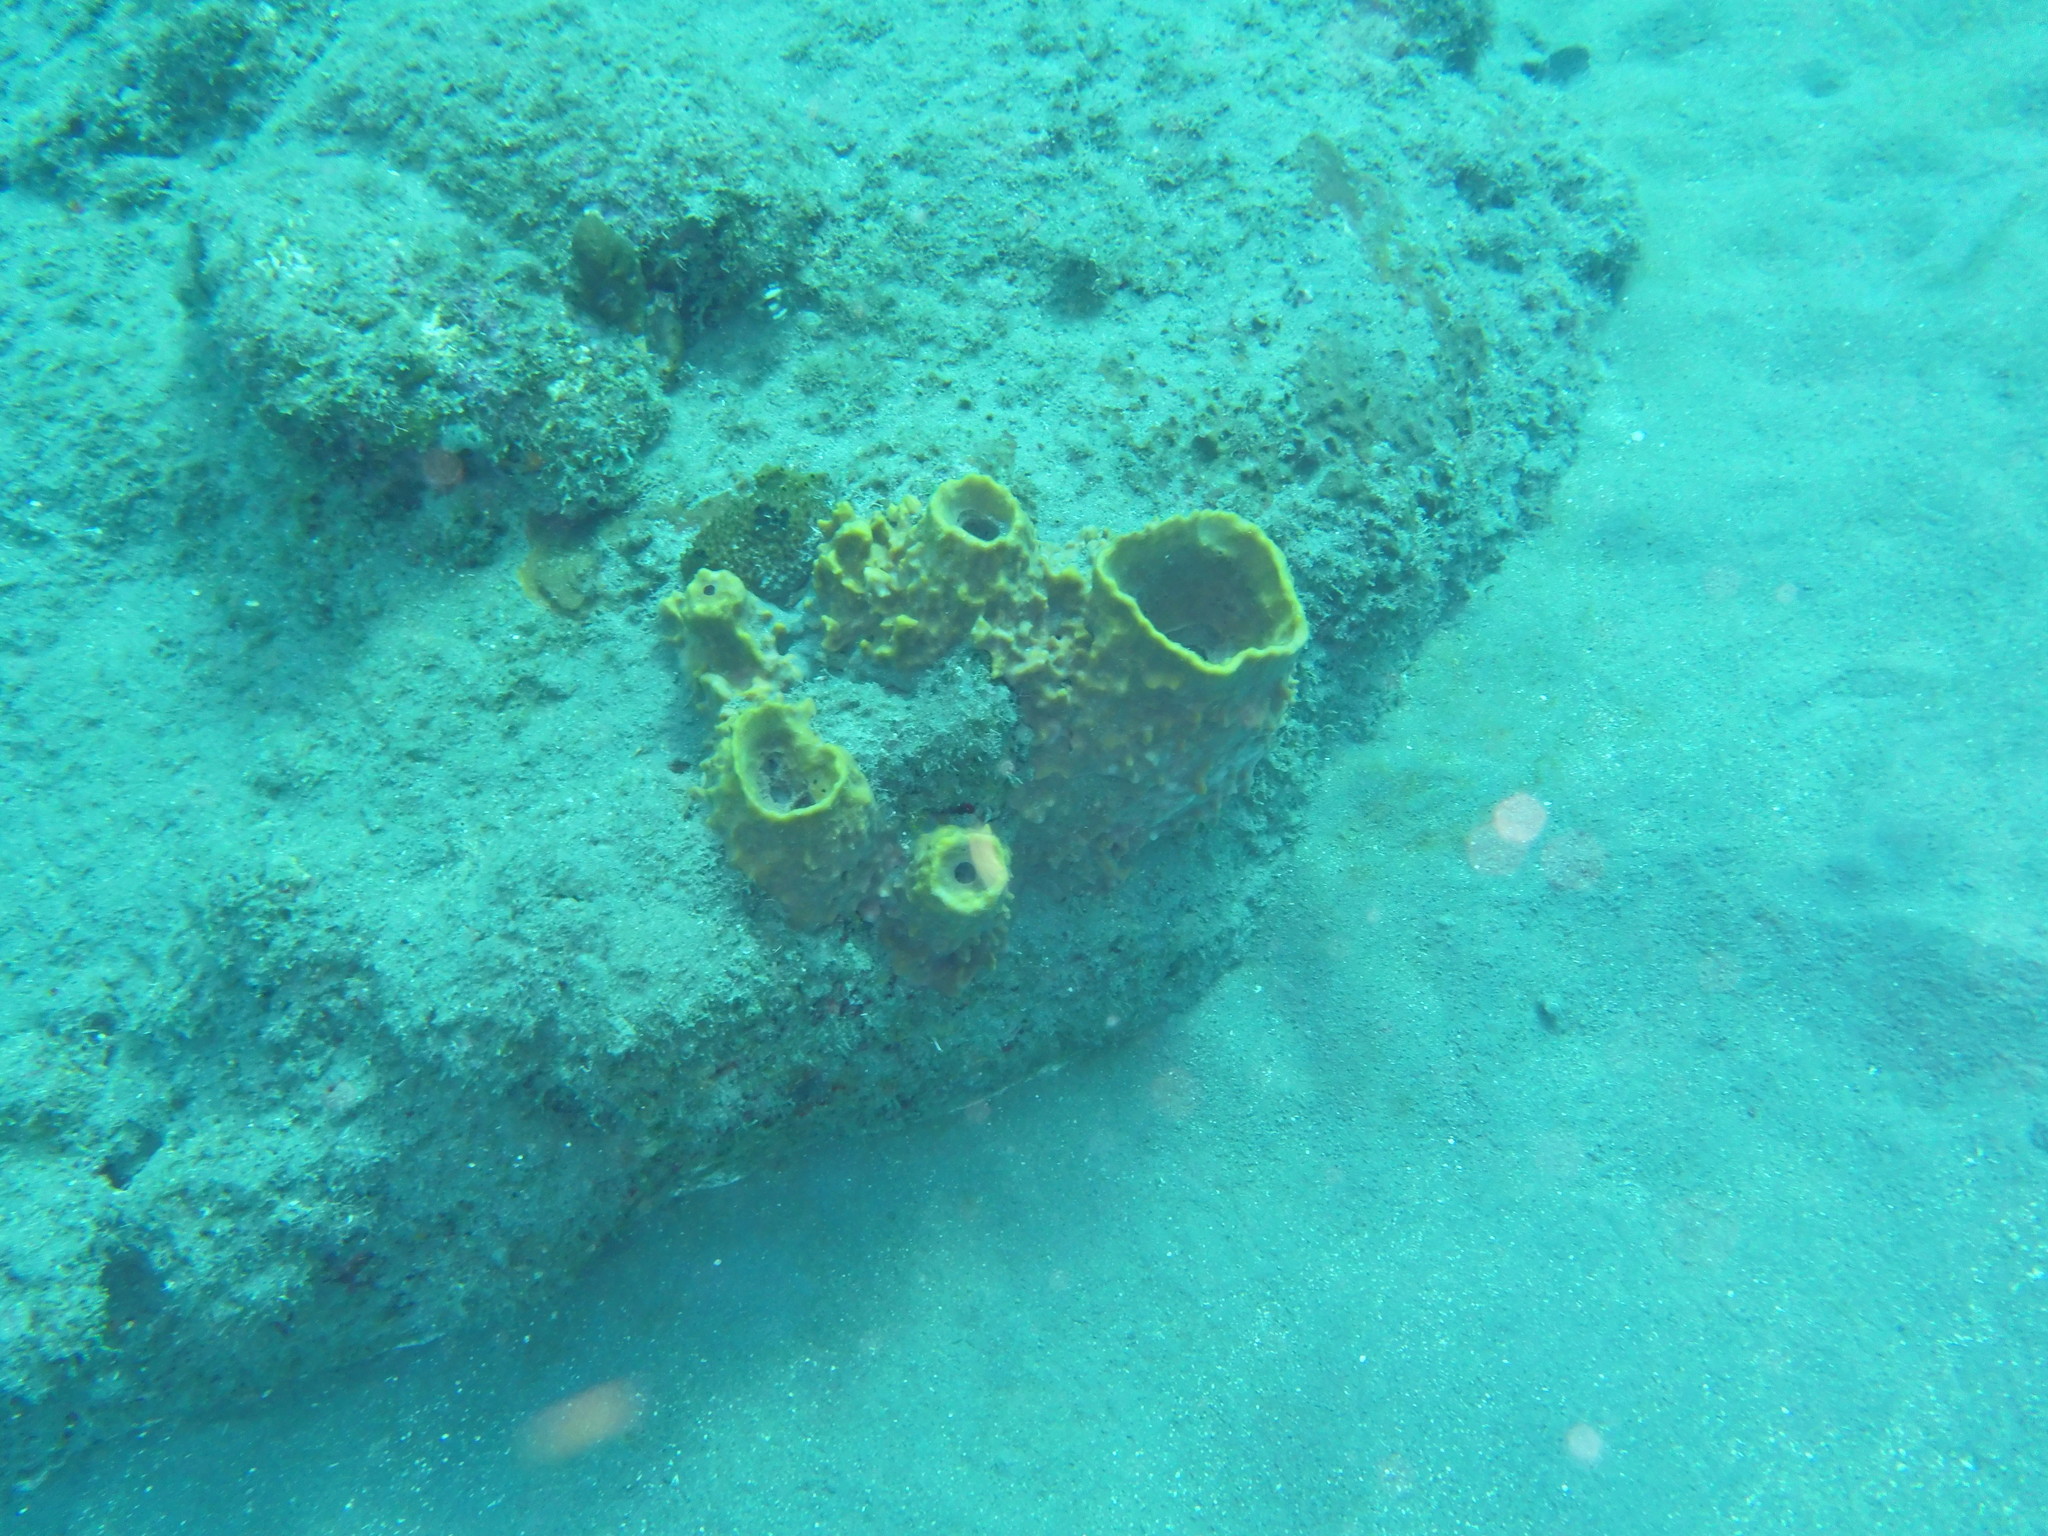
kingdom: Animalia
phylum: Porifera
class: Demospongiae
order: Haplosclerida
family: Petrosiidae
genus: Xestospongia
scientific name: Xestospongia muta
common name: Giant barrel sponge
